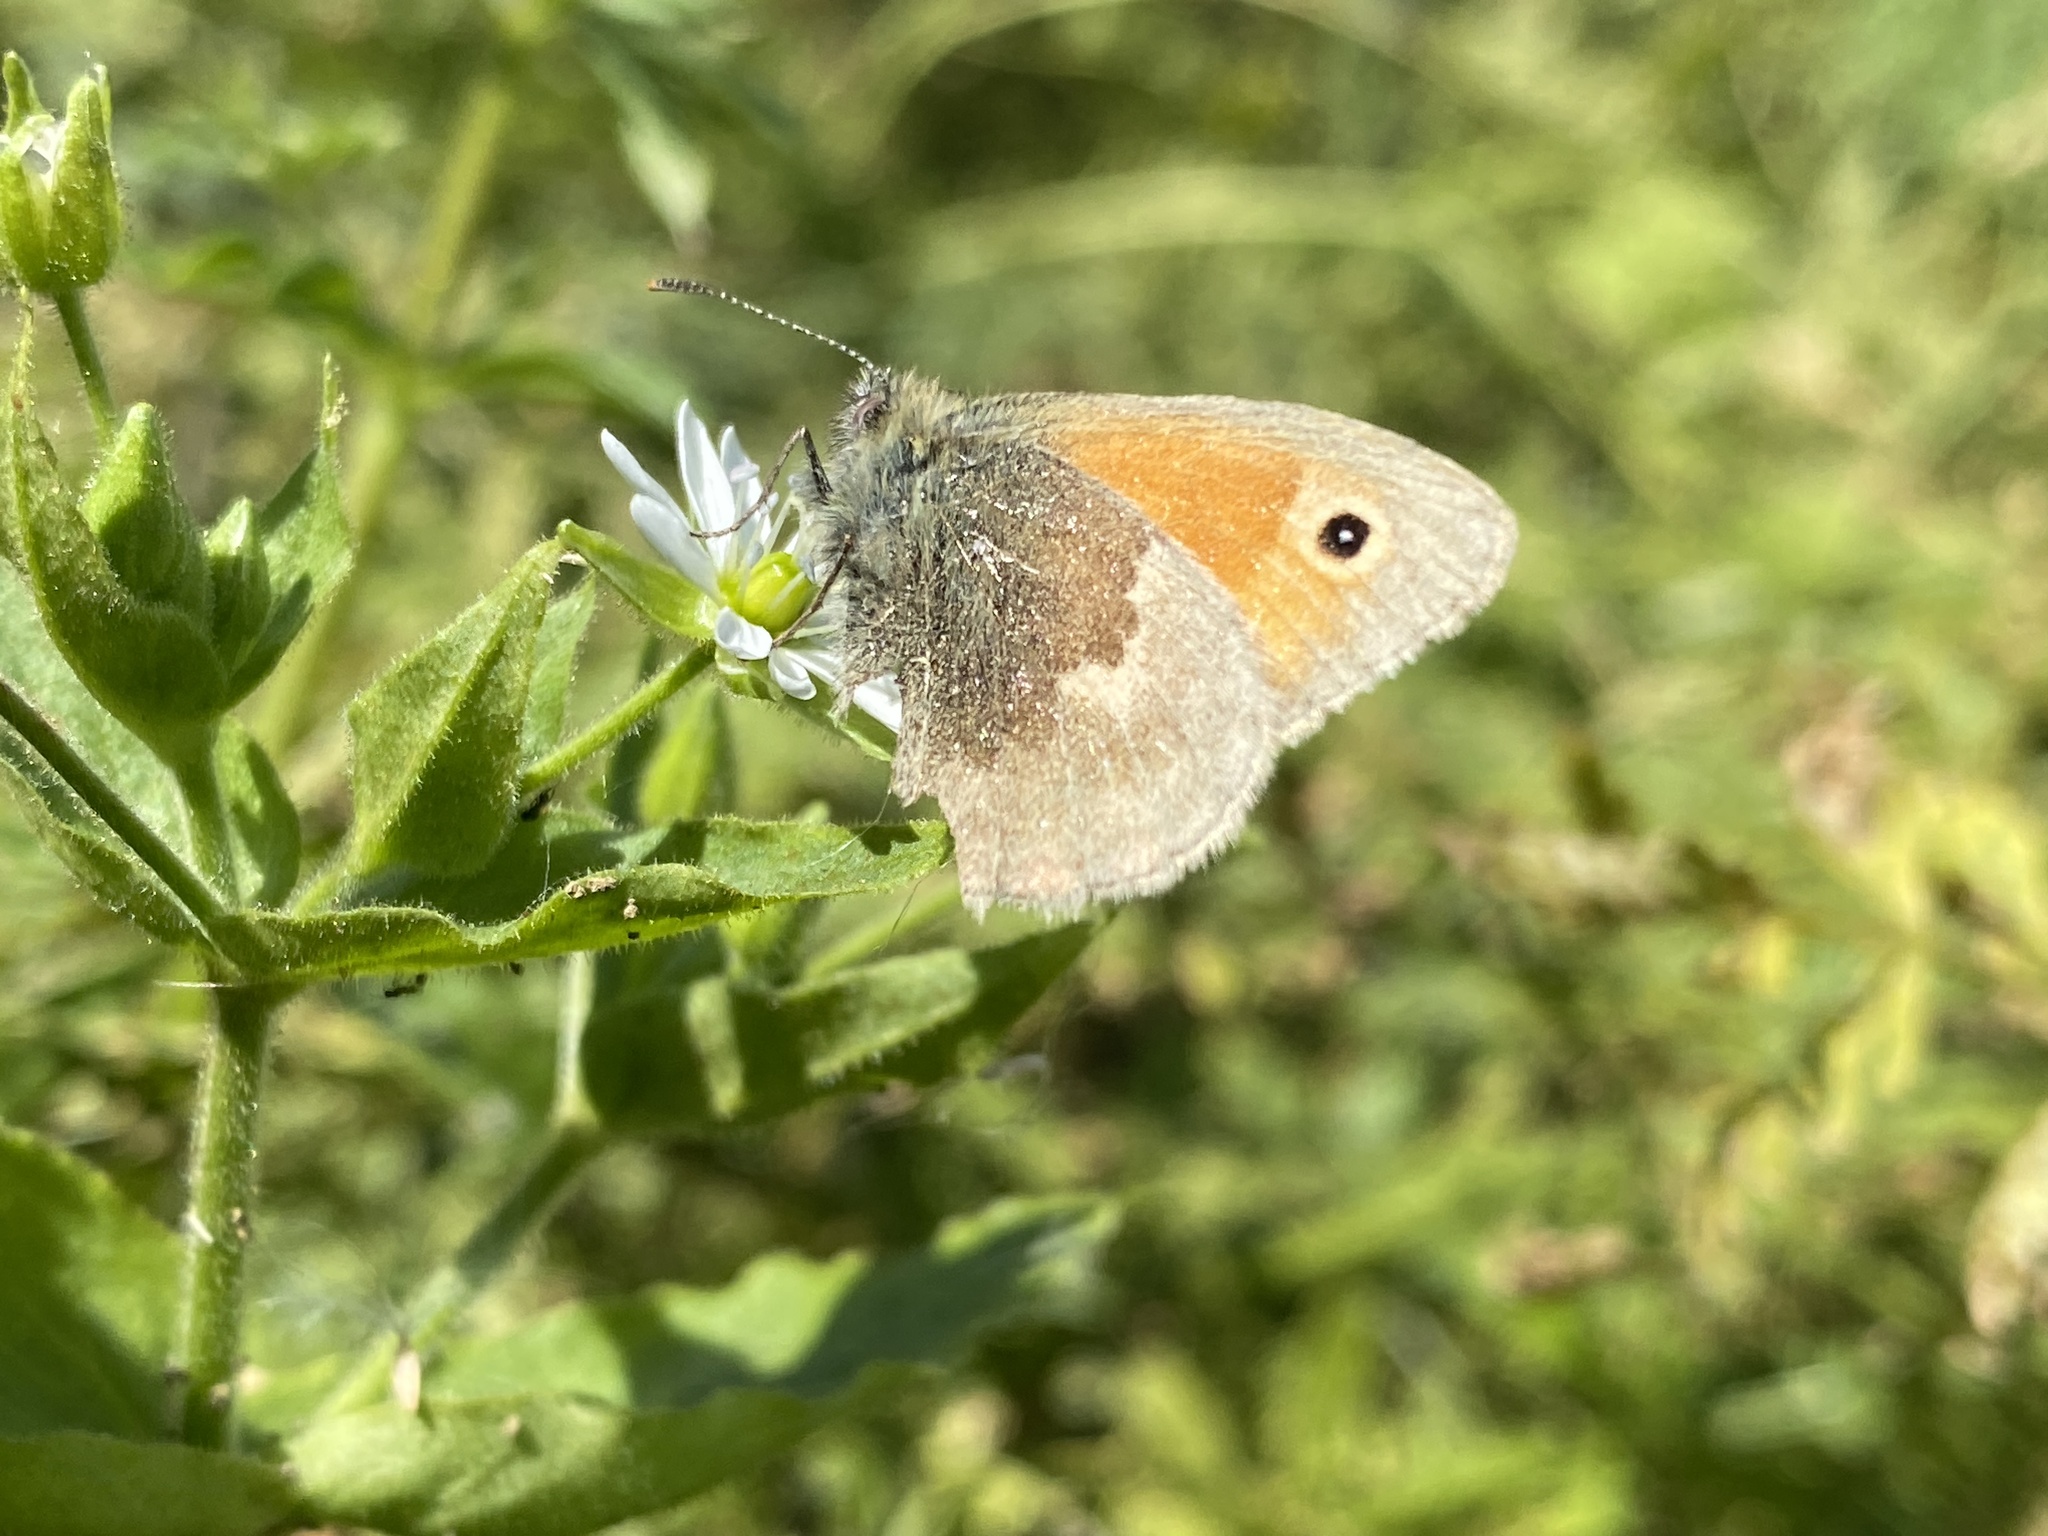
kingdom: Animalia
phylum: Arthropoda
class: Insecta
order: Lepidoptera
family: Nymphalidae
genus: Coenonympha
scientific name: Coenonympha pamphilus
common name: Small heath
